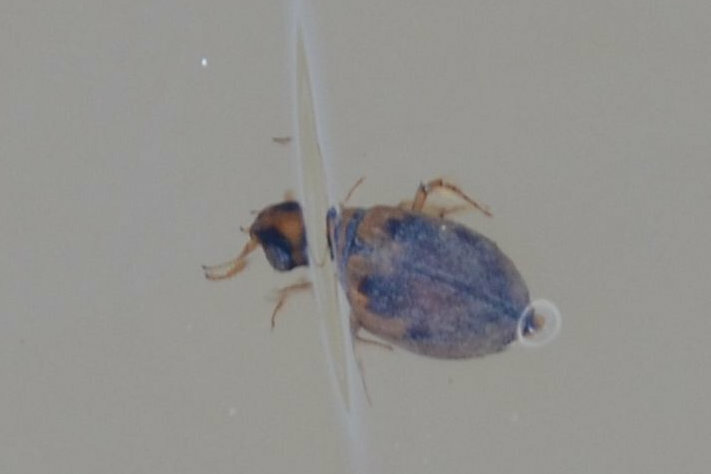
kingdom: Animalia
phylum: Arthropoda
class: Insecta
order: Coleoptera
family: Hygrobiidae
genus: Hygrobia
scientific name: Hygrobia hermanni
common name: Screech beetle
